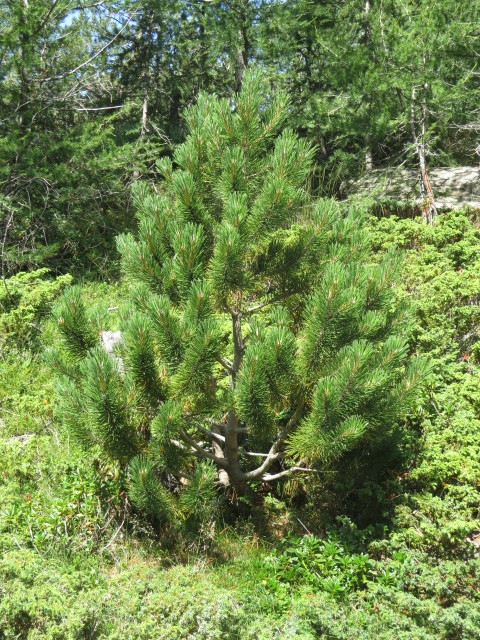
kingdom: Plantae
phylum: Tracheophyta
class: Pinopsida
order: Pinales
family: Pinaceae
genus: Pinus
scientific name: Pinus mugo
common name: Mugo pine
